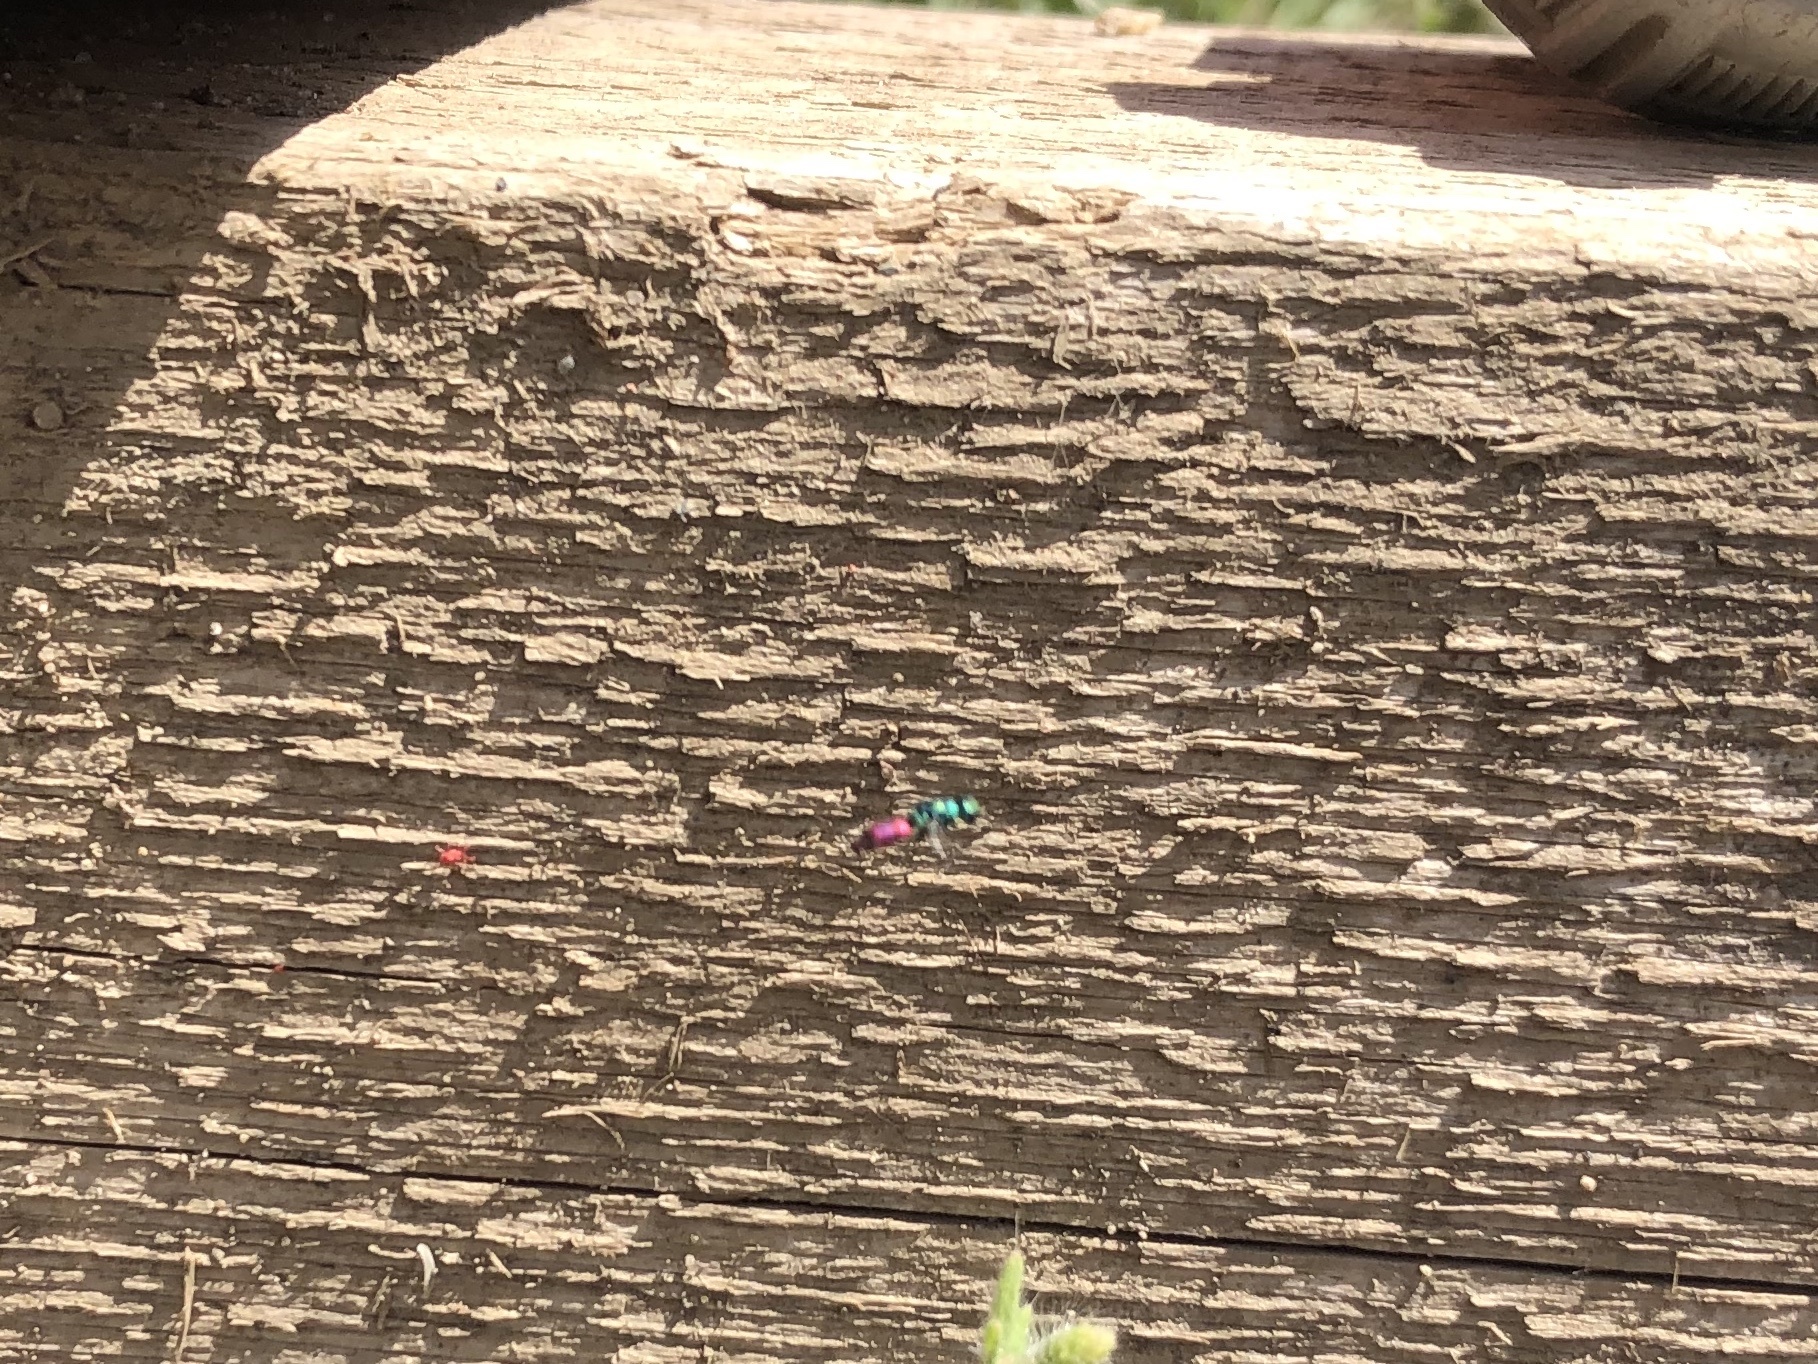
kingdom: Animalia
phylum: Arthropoda
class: Insecta
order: Hymenoptera
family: Chrysididae
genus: Chrysis
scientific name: Chrysis gracillima
